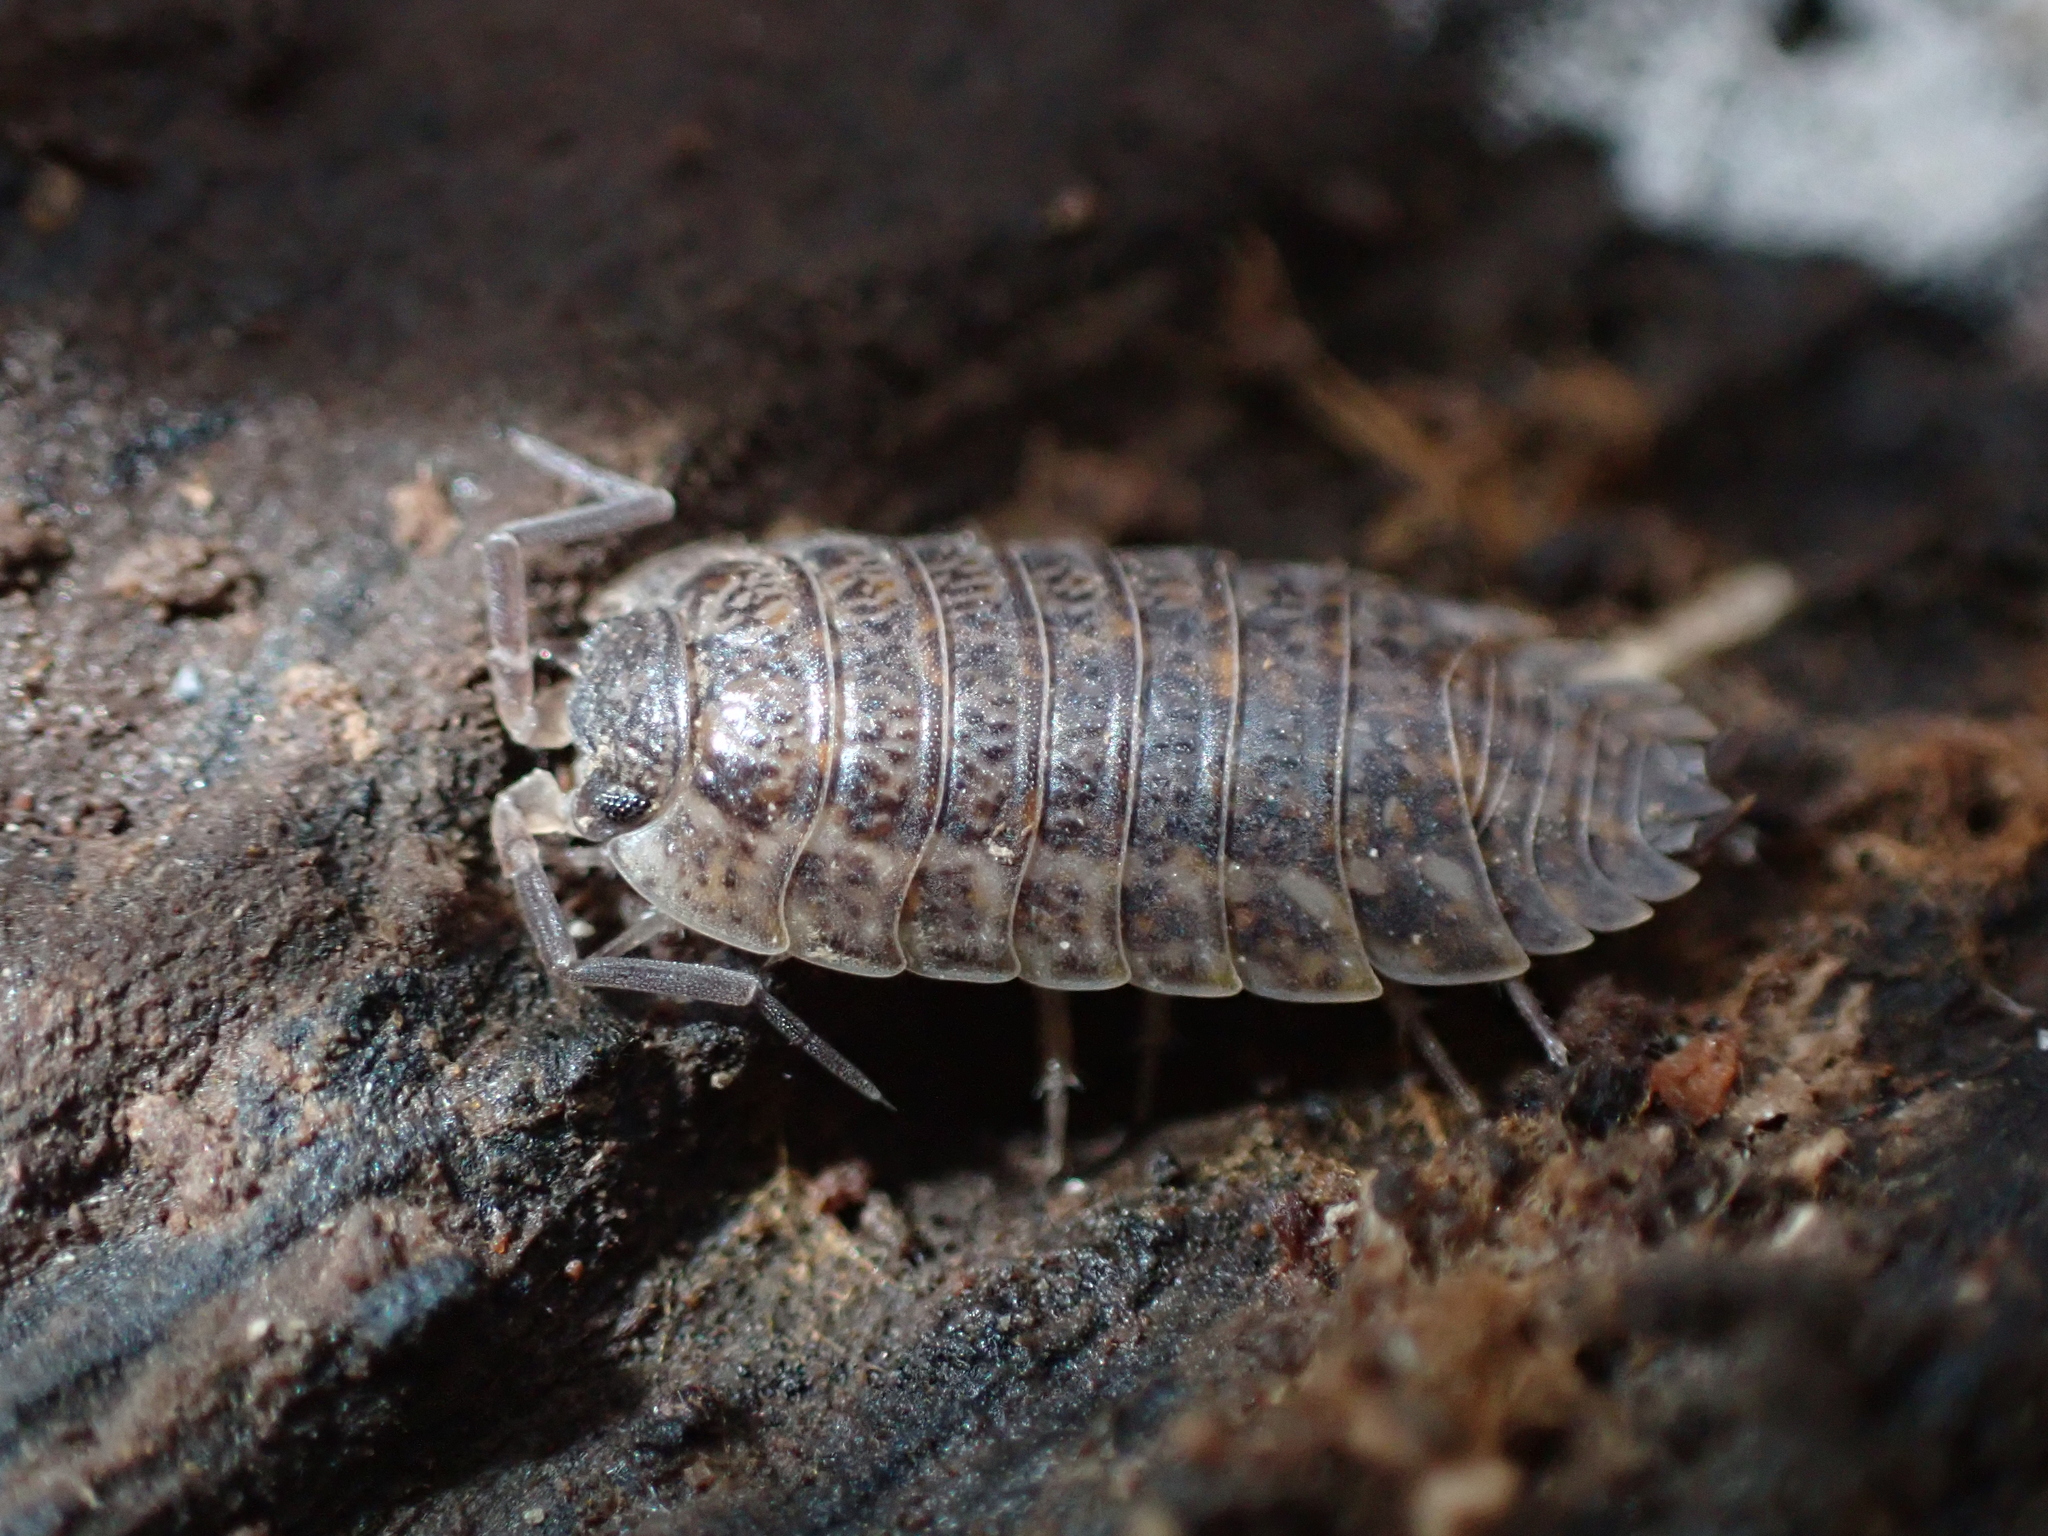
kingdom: Animalia
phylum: Arthropoda
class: Malacostraca
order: Isopoda
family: Trachelipodidae
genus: Trachelipus
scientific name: Trachelipus rathkii
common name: Isopod
